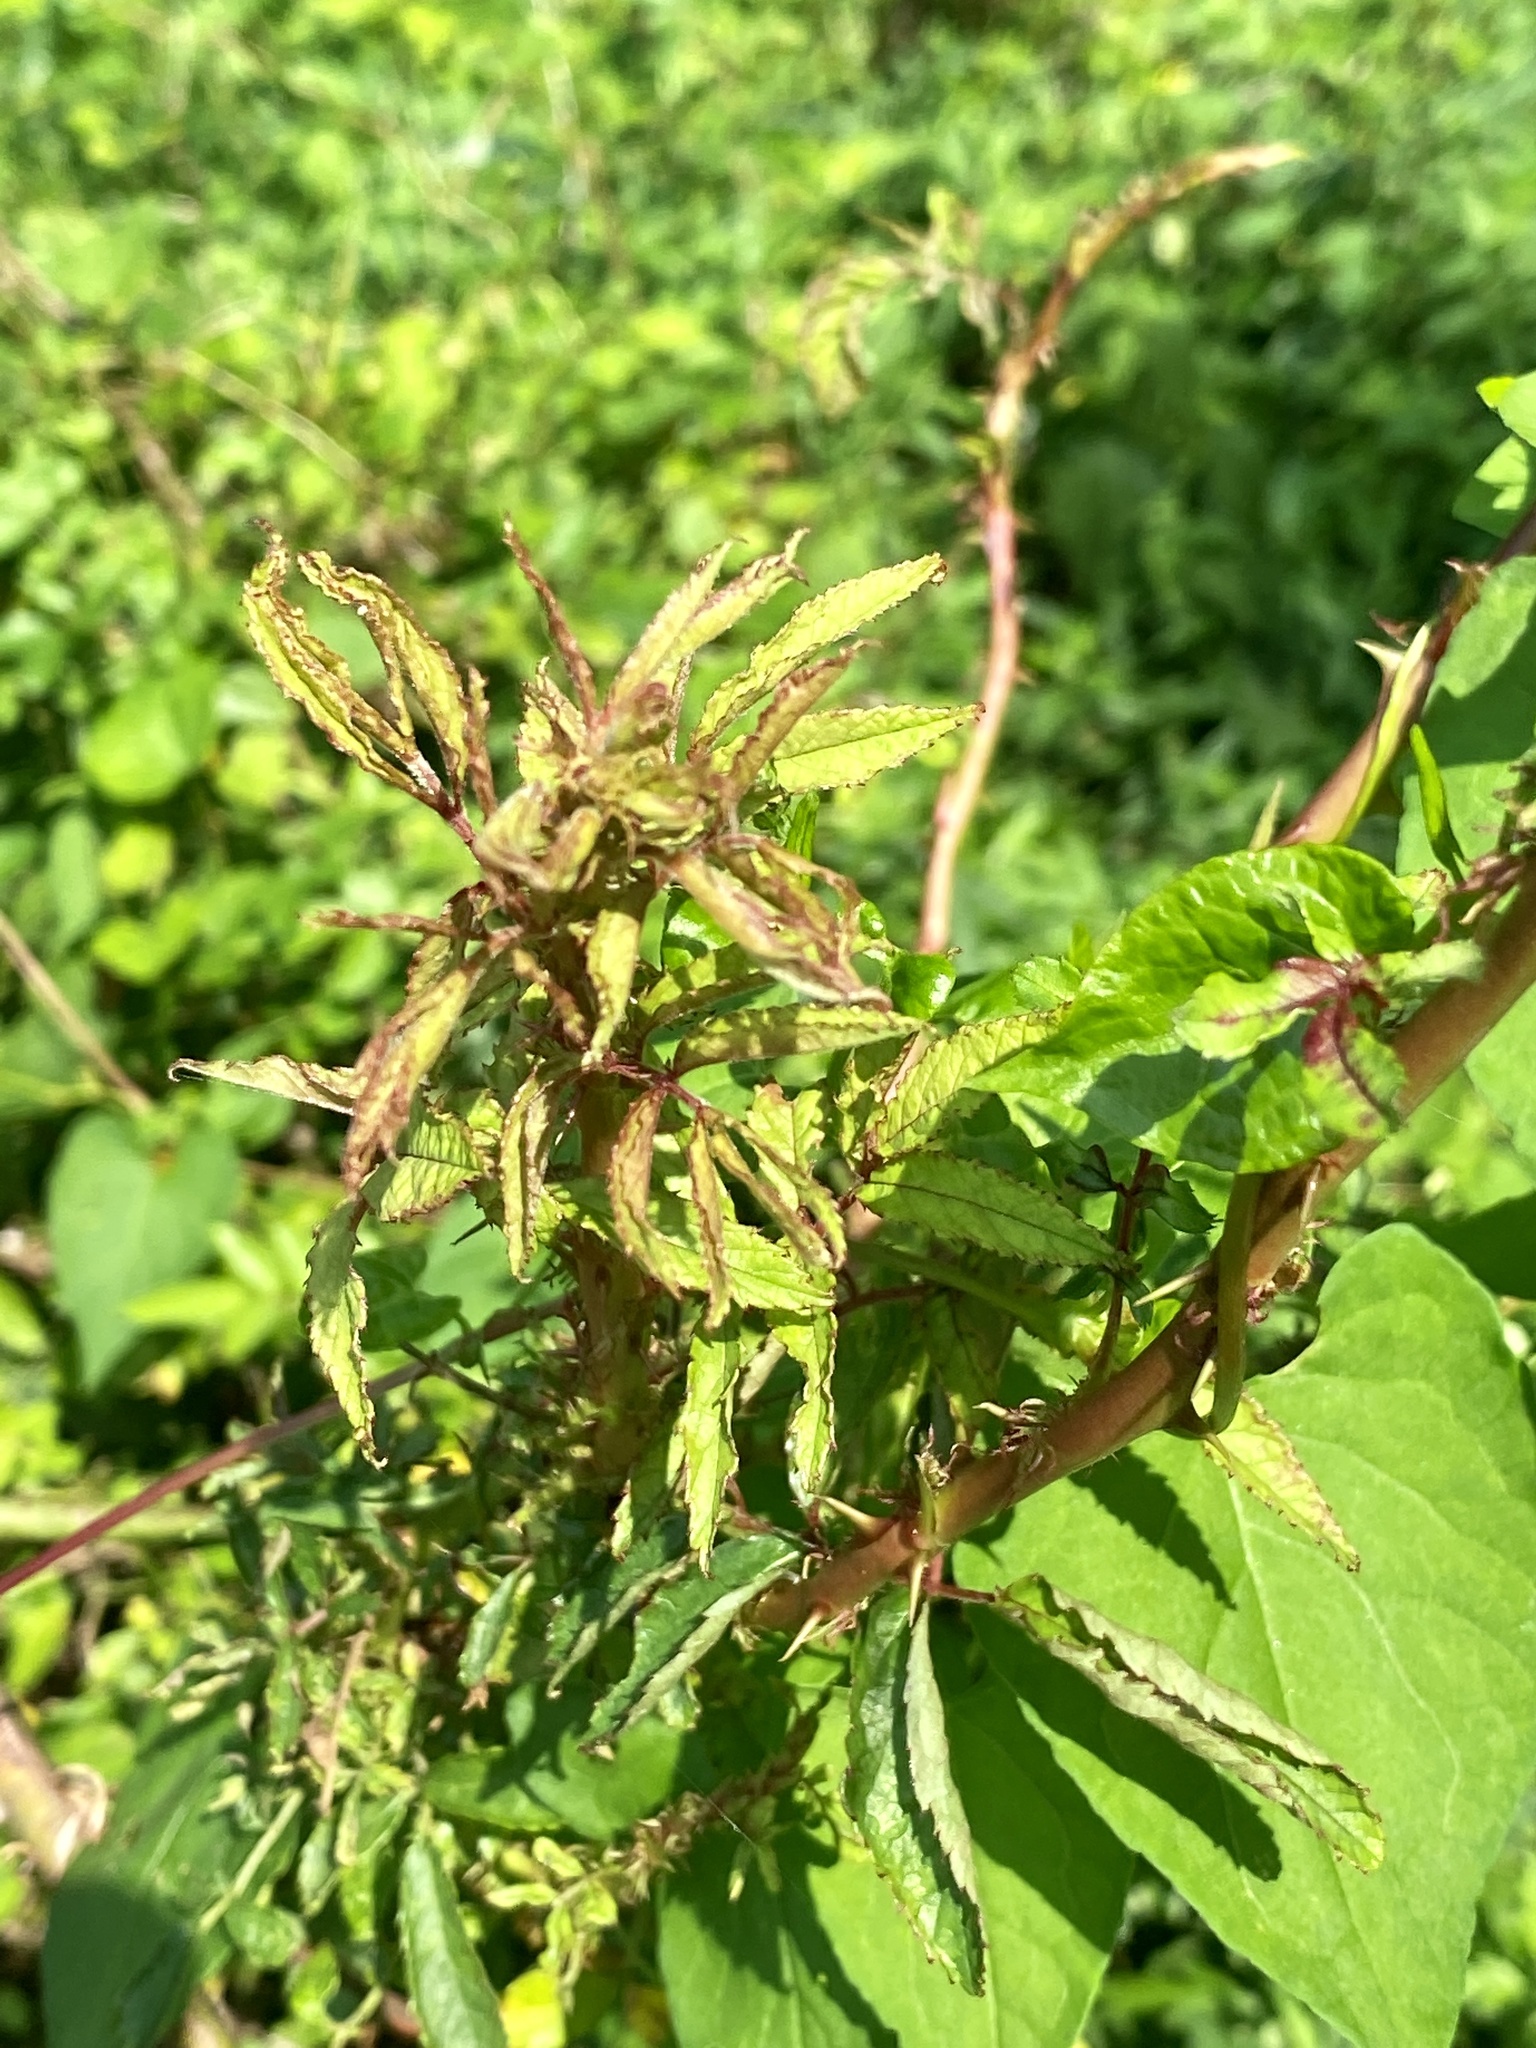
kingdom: Viruses
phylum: Negarnaviricota
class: Ellioviricetes
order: Bunyavirales
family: Fimoviridae
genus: Emaravirus
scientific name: Emaravirus rosae
